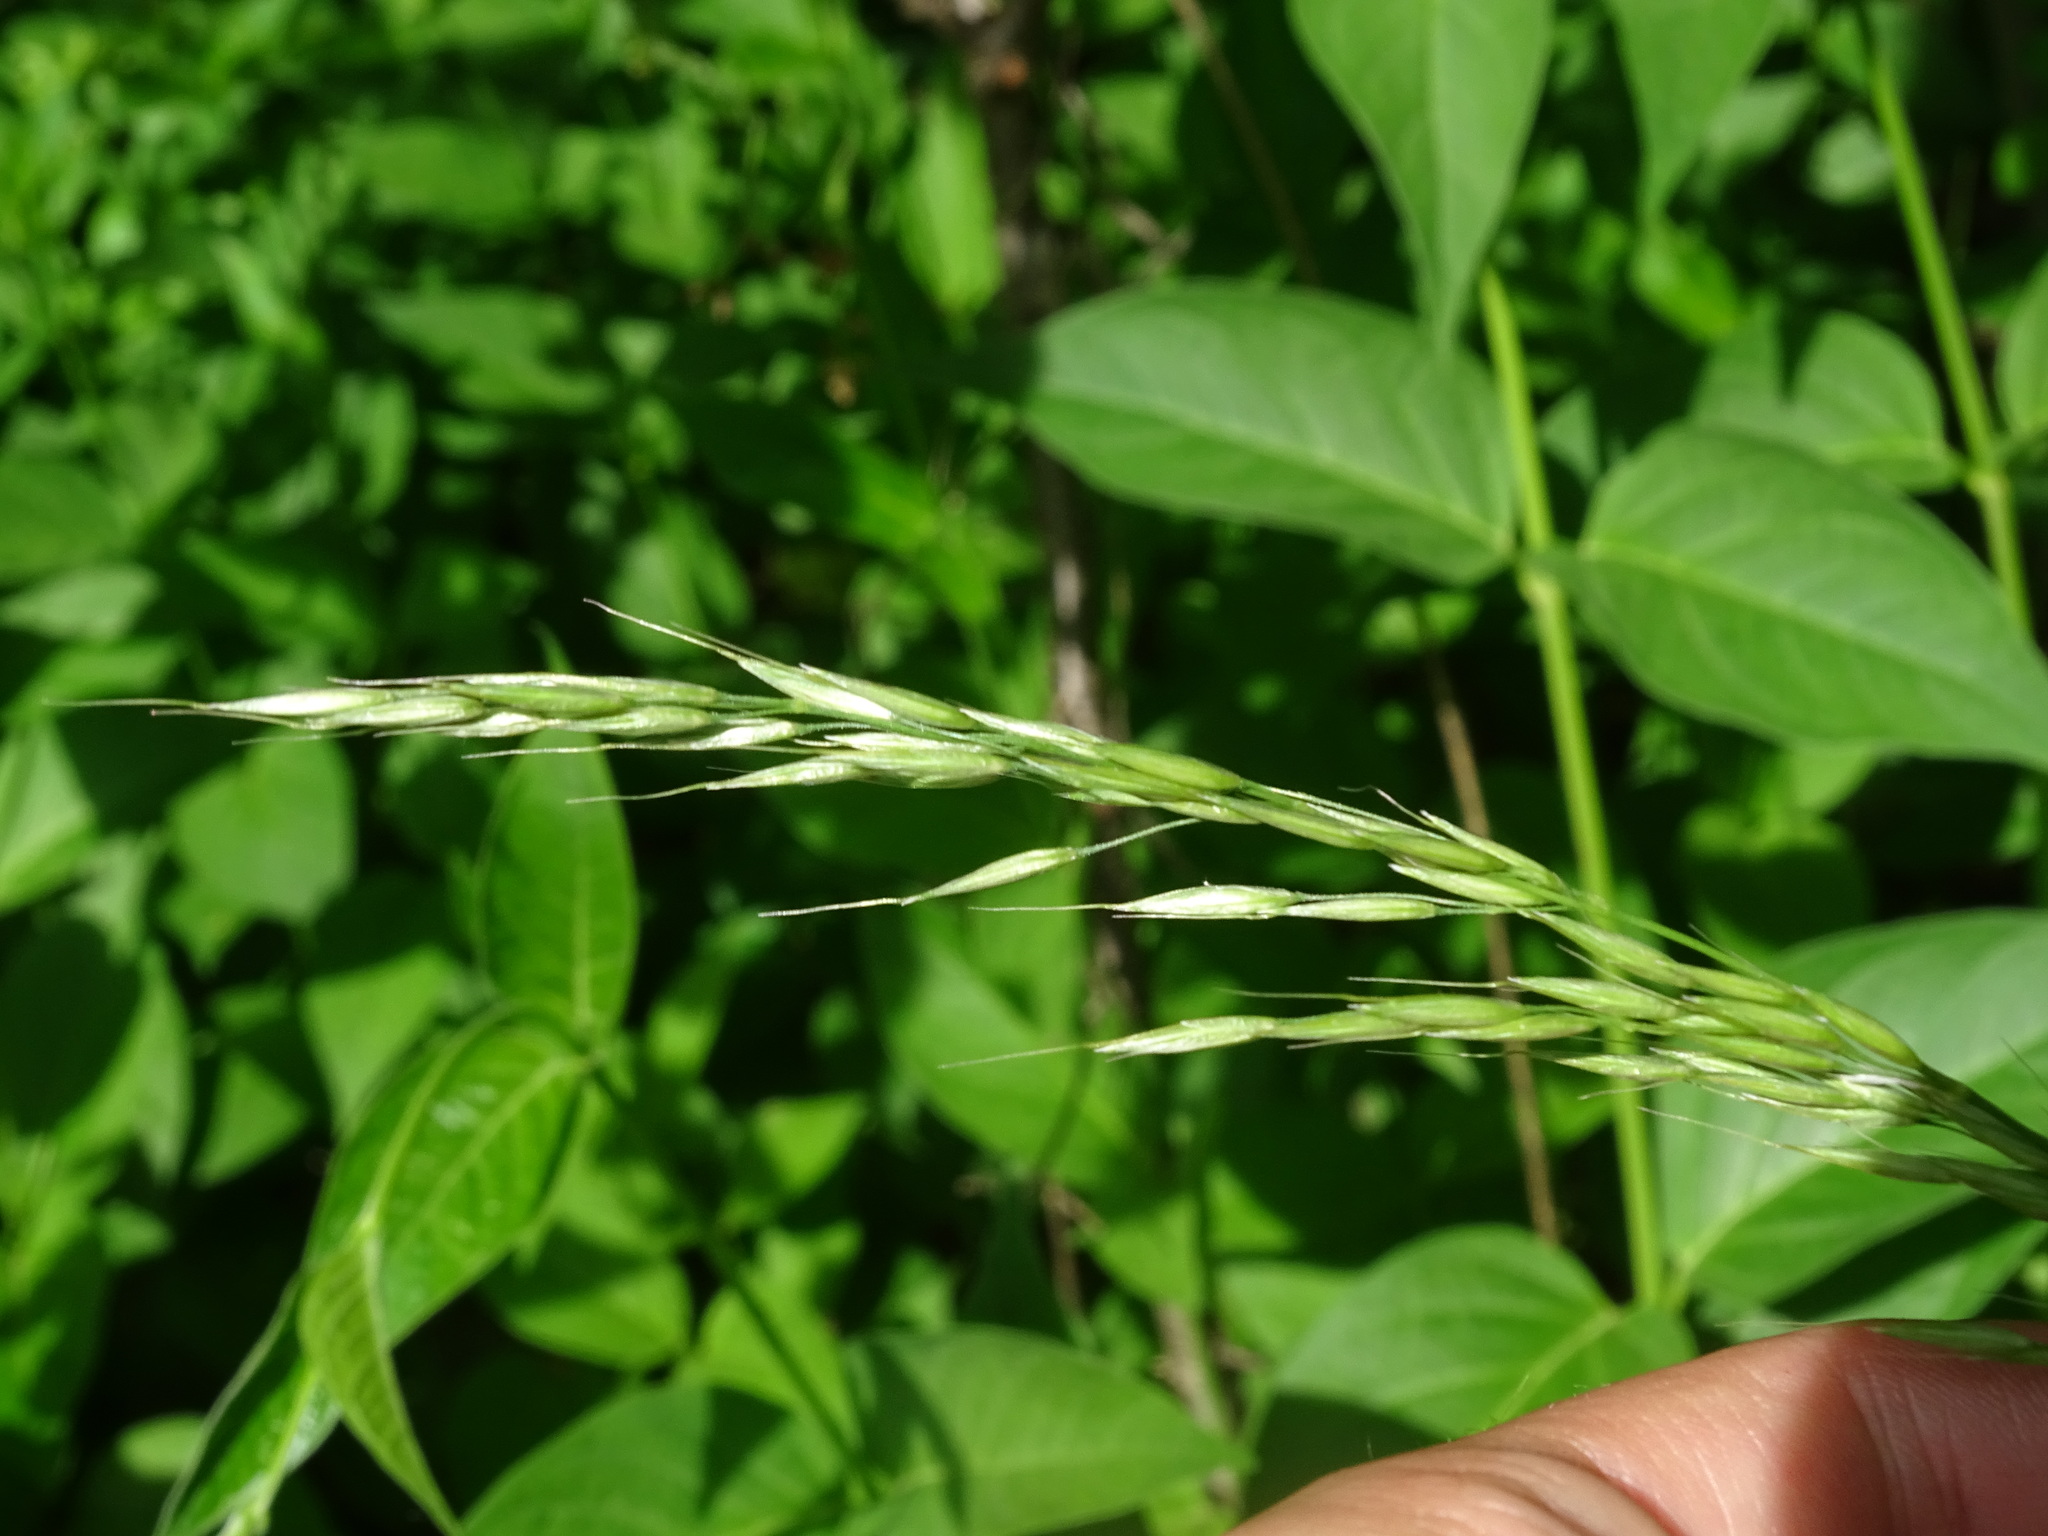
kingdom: Plantae
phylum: Tracheophyta
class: Liliopsida
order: Poales
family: Poaceae
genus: Arrhenatherum
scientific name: Arrhenatherum elatius
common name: Tall oatgrass
